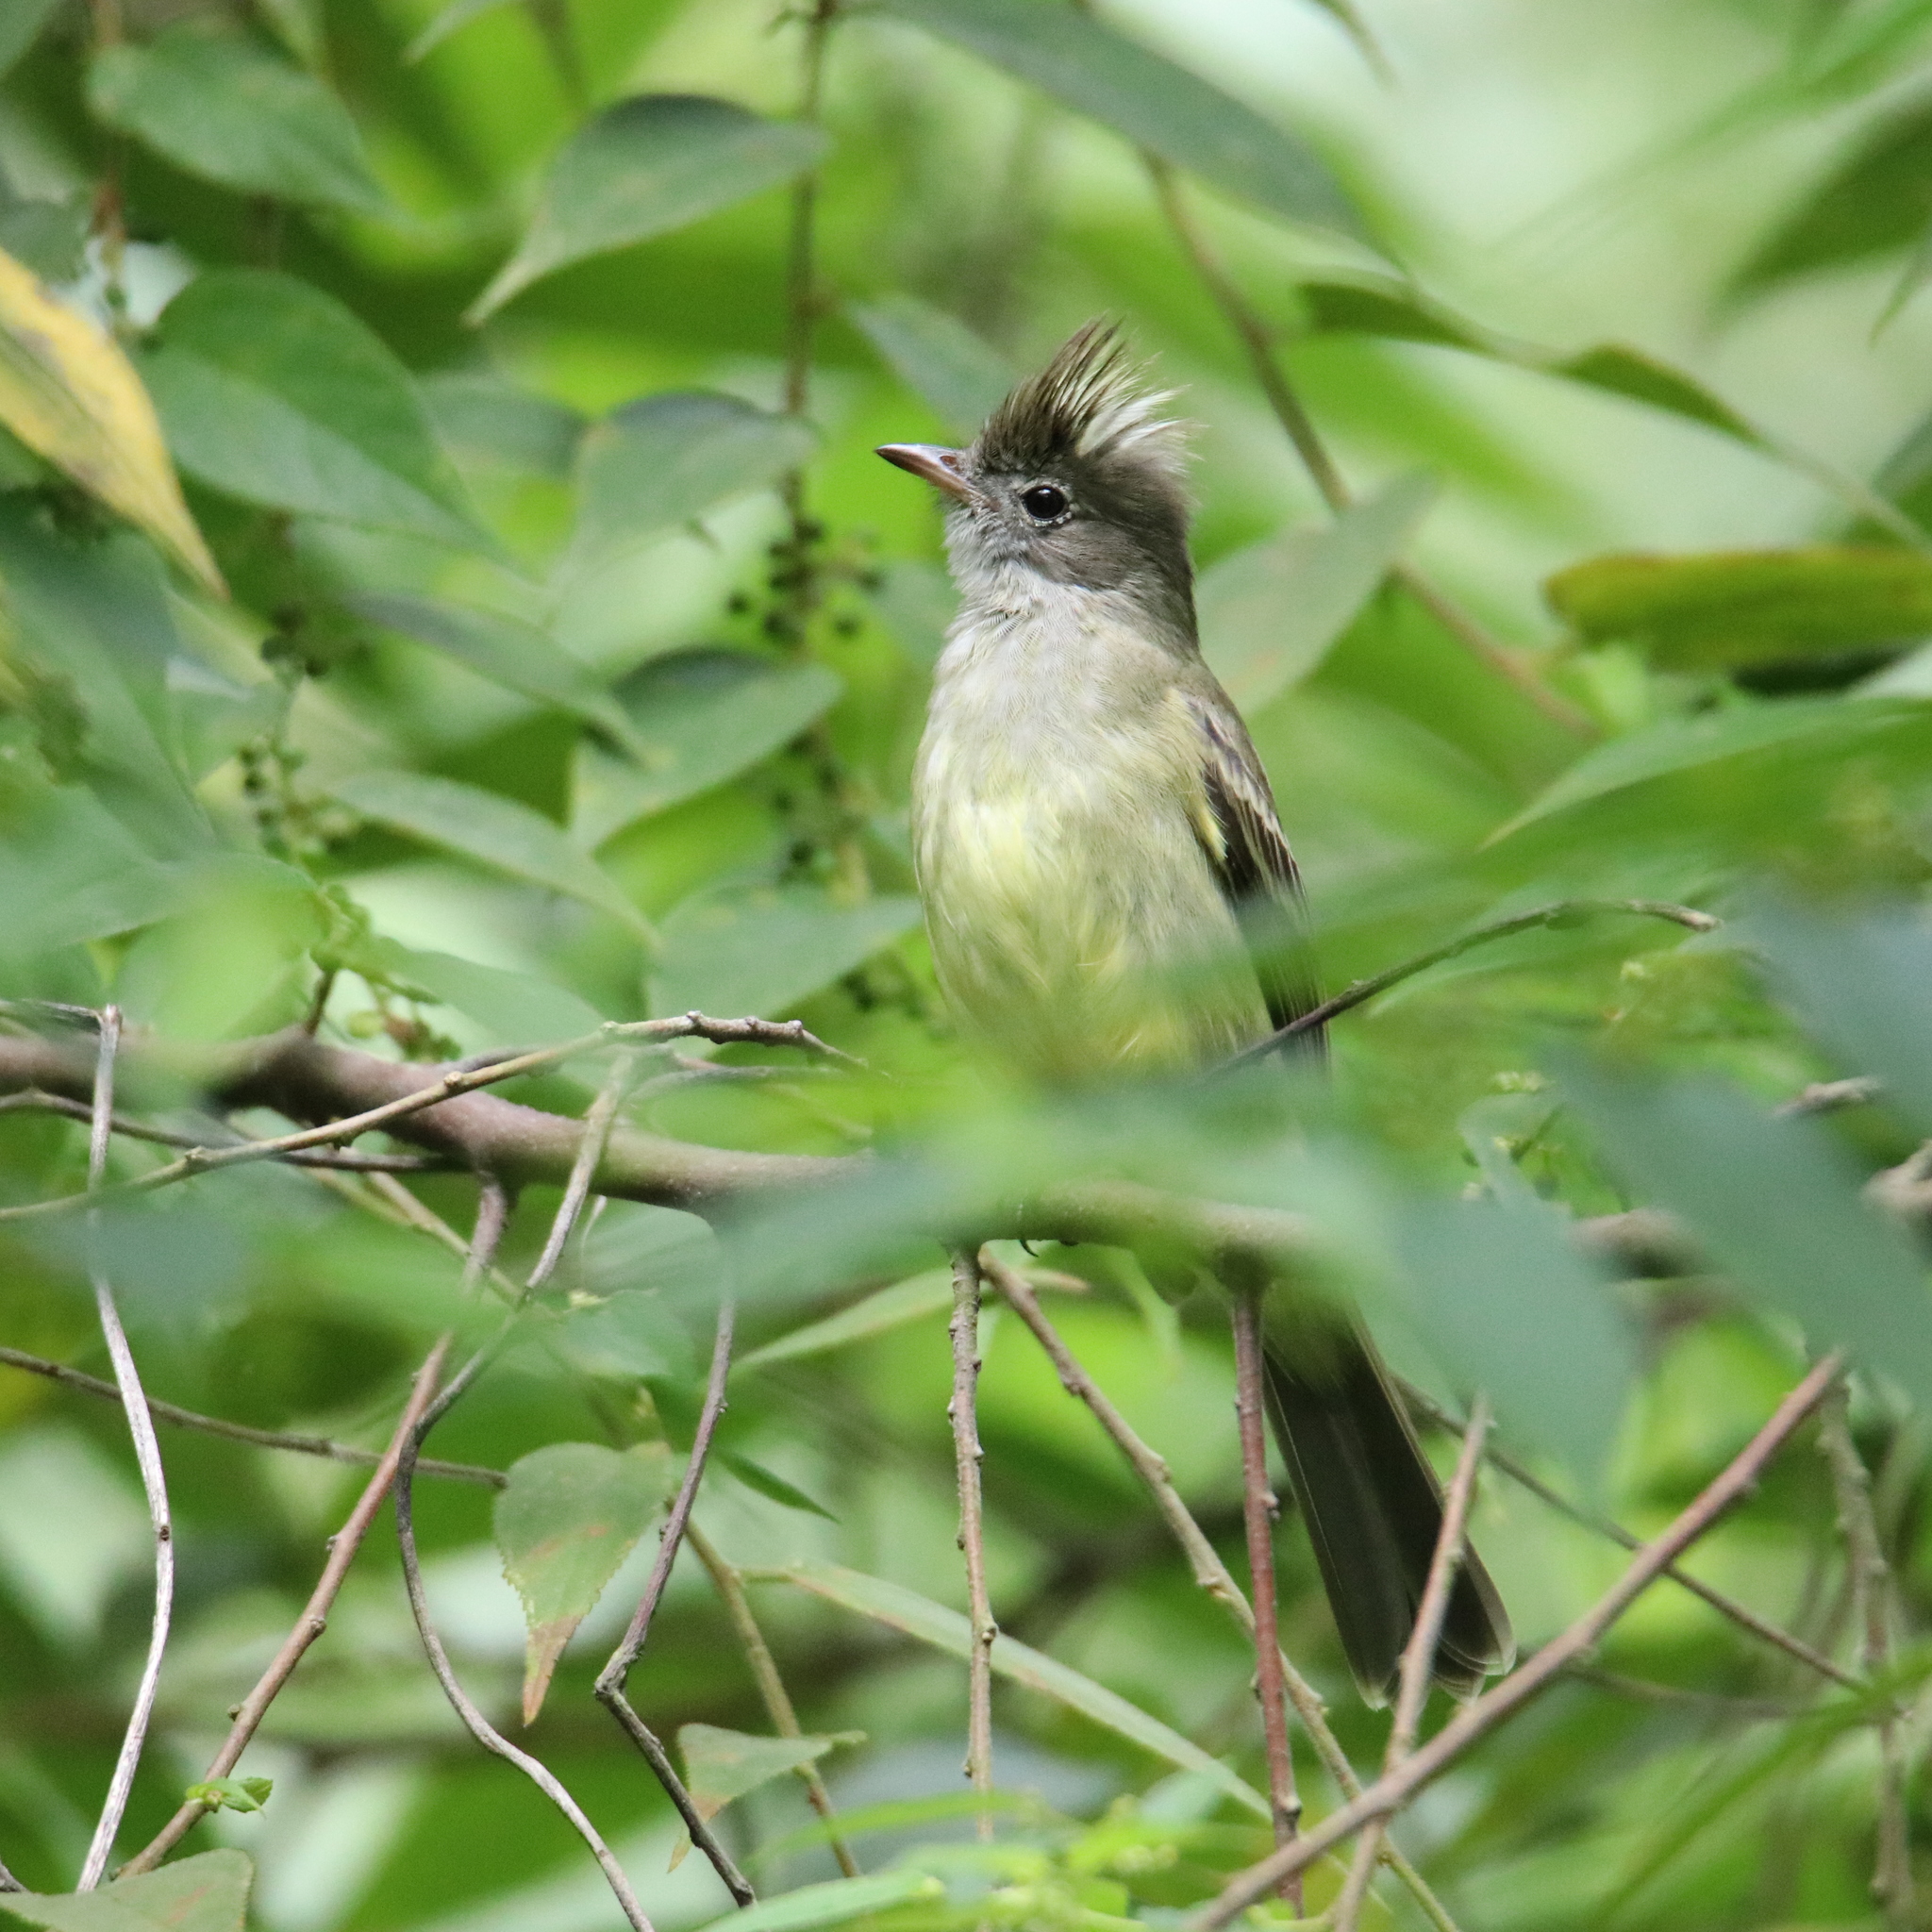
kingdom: Animalia
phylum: Chordata
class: Aves
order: Passeriformes
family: Tyrannidae
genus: Elaenia
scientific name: Elaenia flavogaster
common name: Yellow-bellied elaenia
